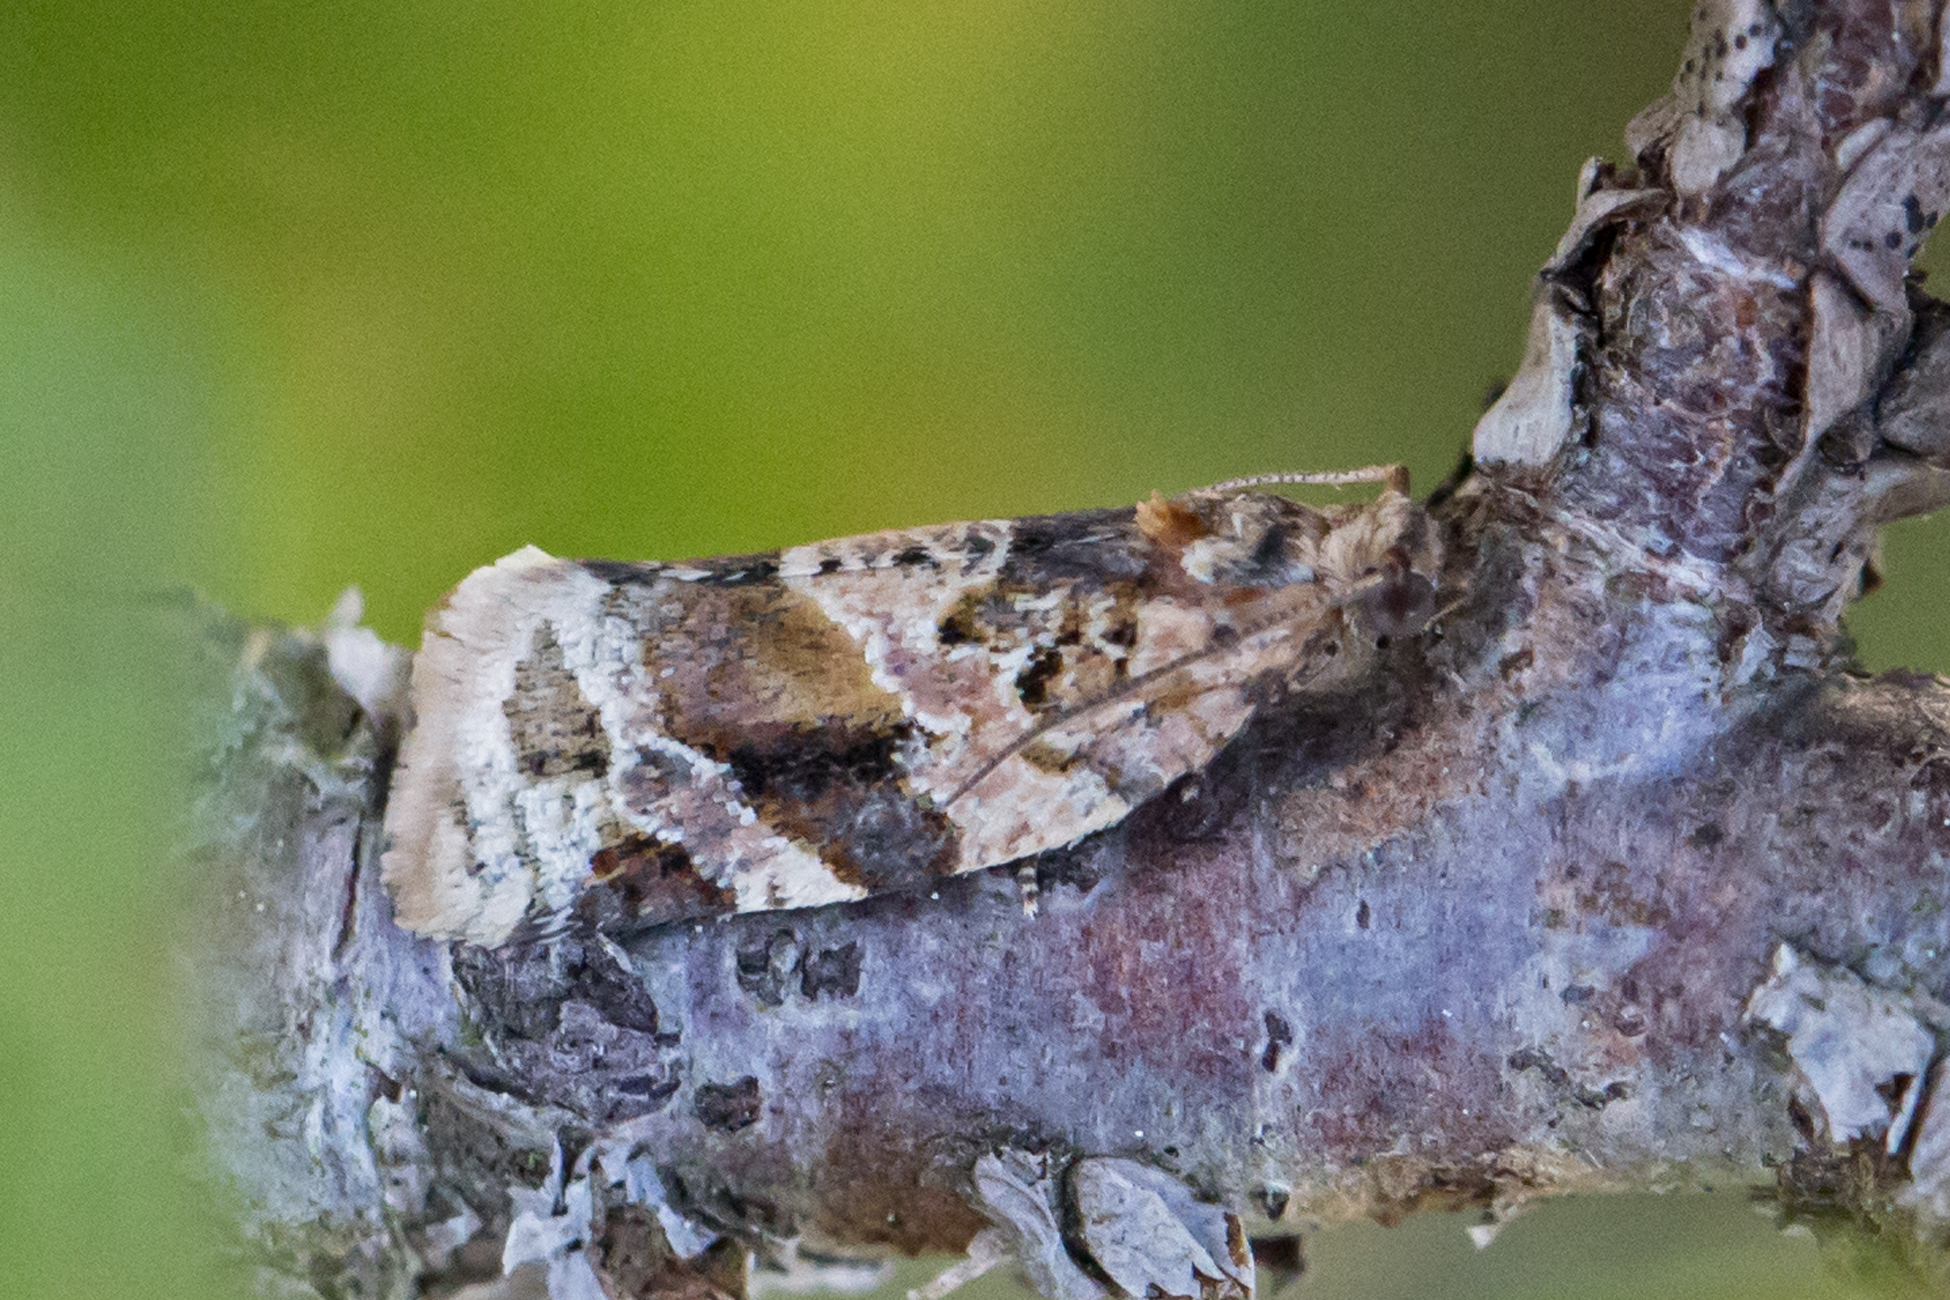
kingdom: Animalia
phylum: Arthropoda
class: Insecta
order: Lepidoptera
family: Tortricidae
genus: Argyrotaenia
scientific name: Argyrotaenia velutinana
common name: Red-banded leafroller moth
